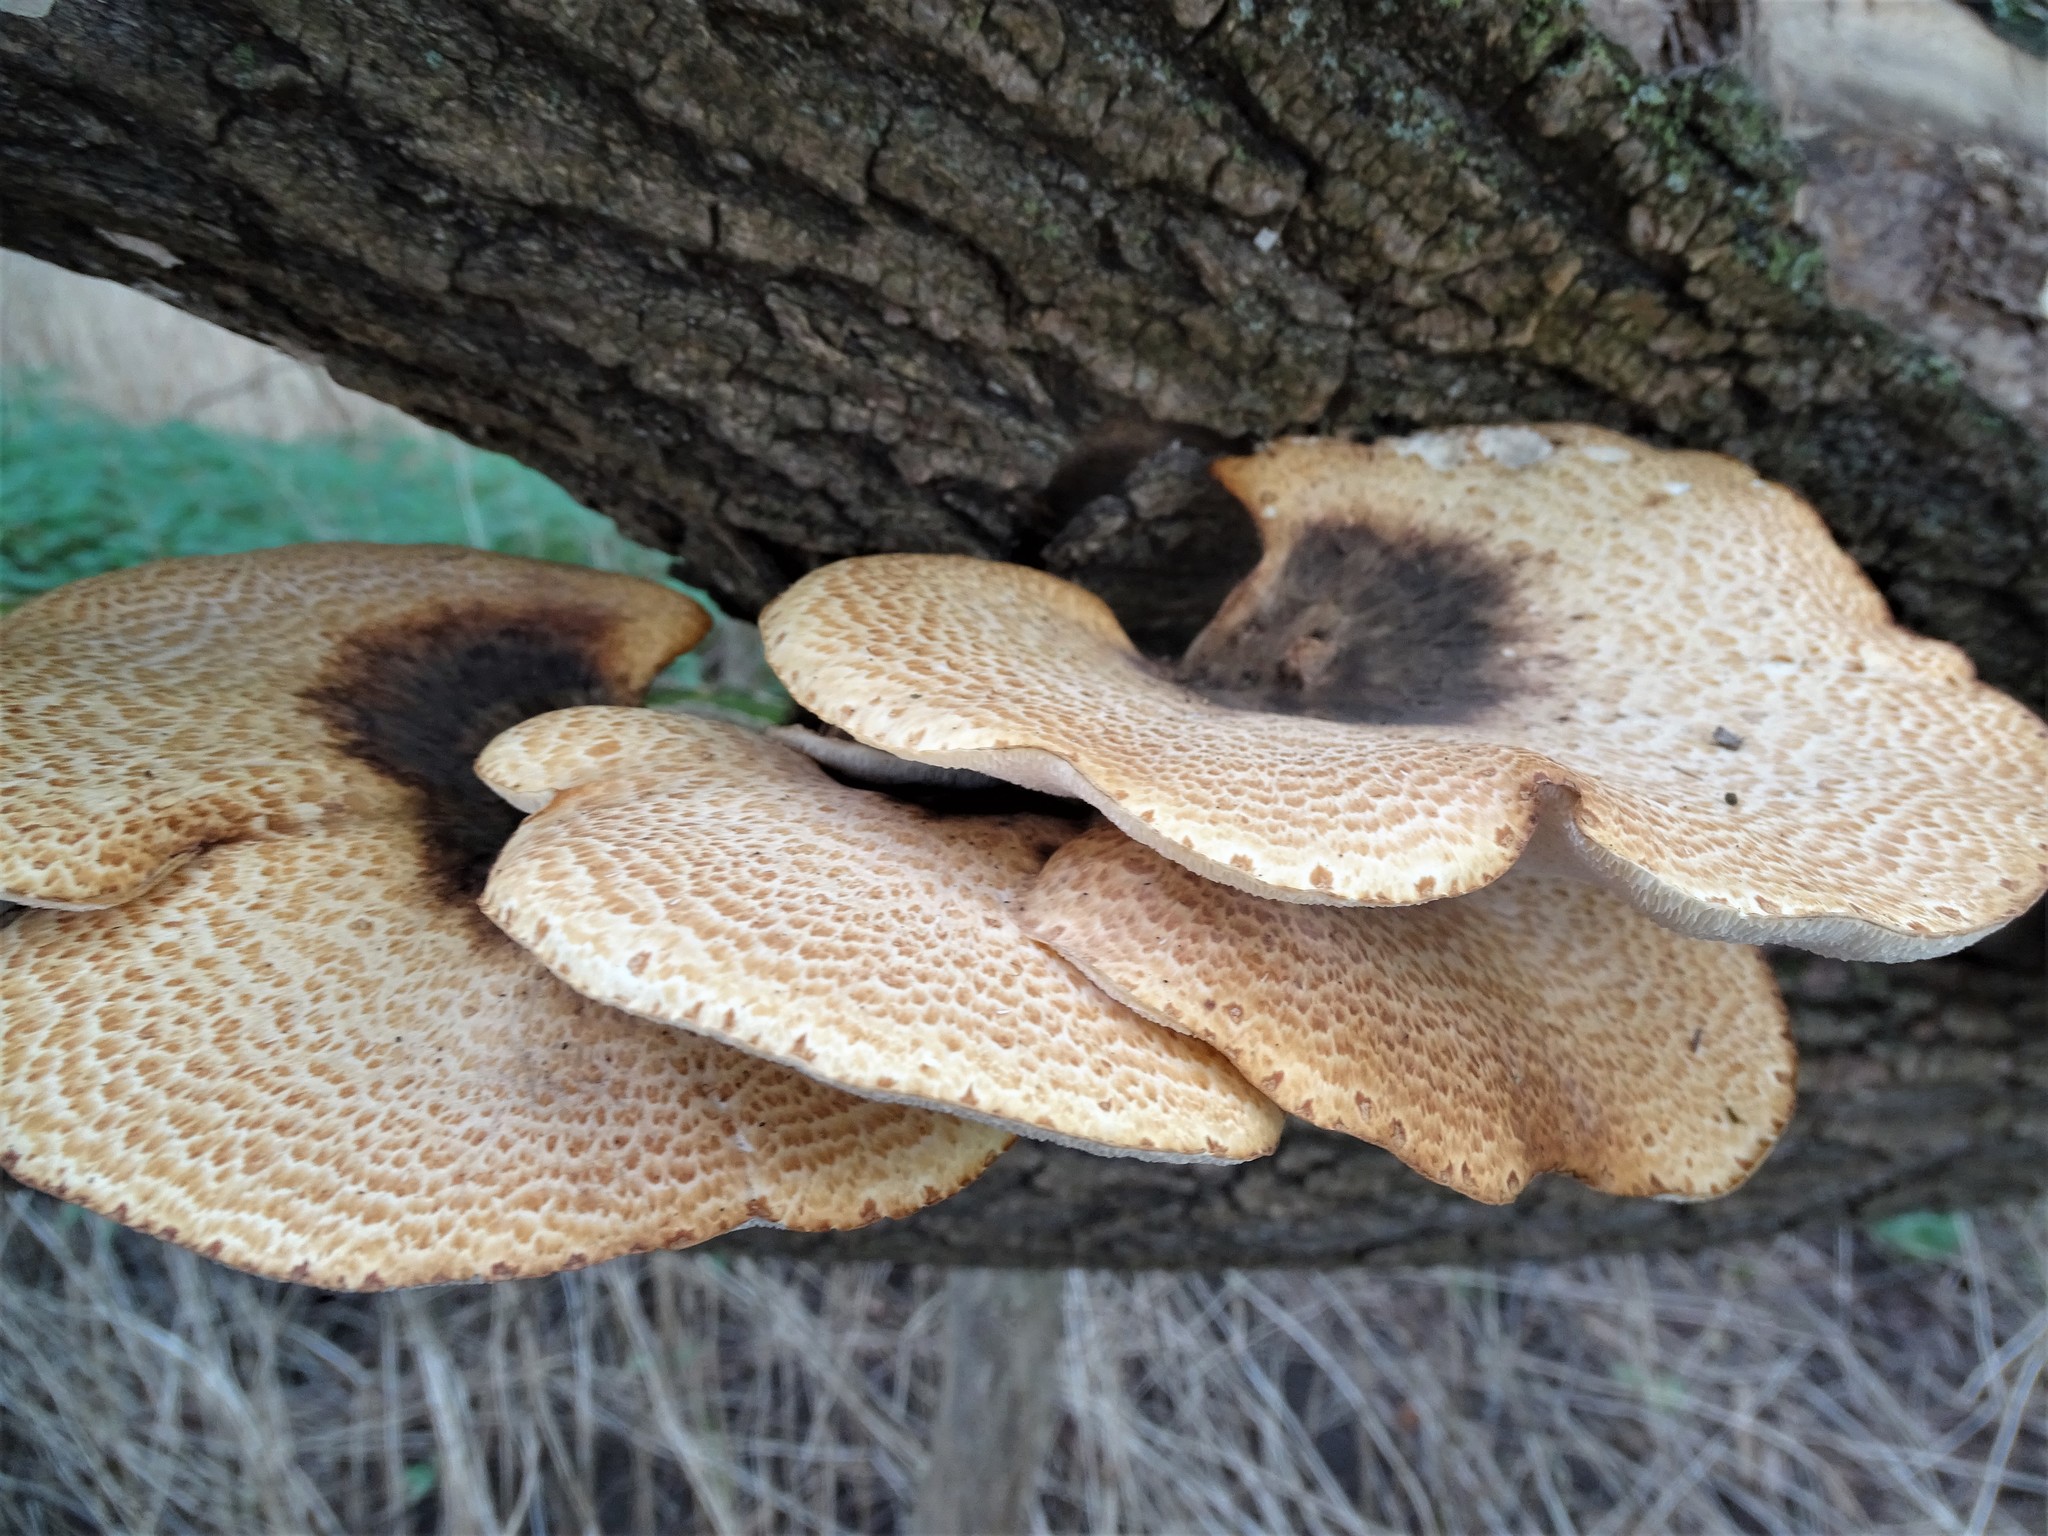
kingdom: Fungi
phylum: Basidiomycota
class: Agaricomycetes
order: Polyporales
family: Polyporaceae
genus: Cerioporus
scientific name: Cerioporus squamosus
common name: Dryad's saddle
